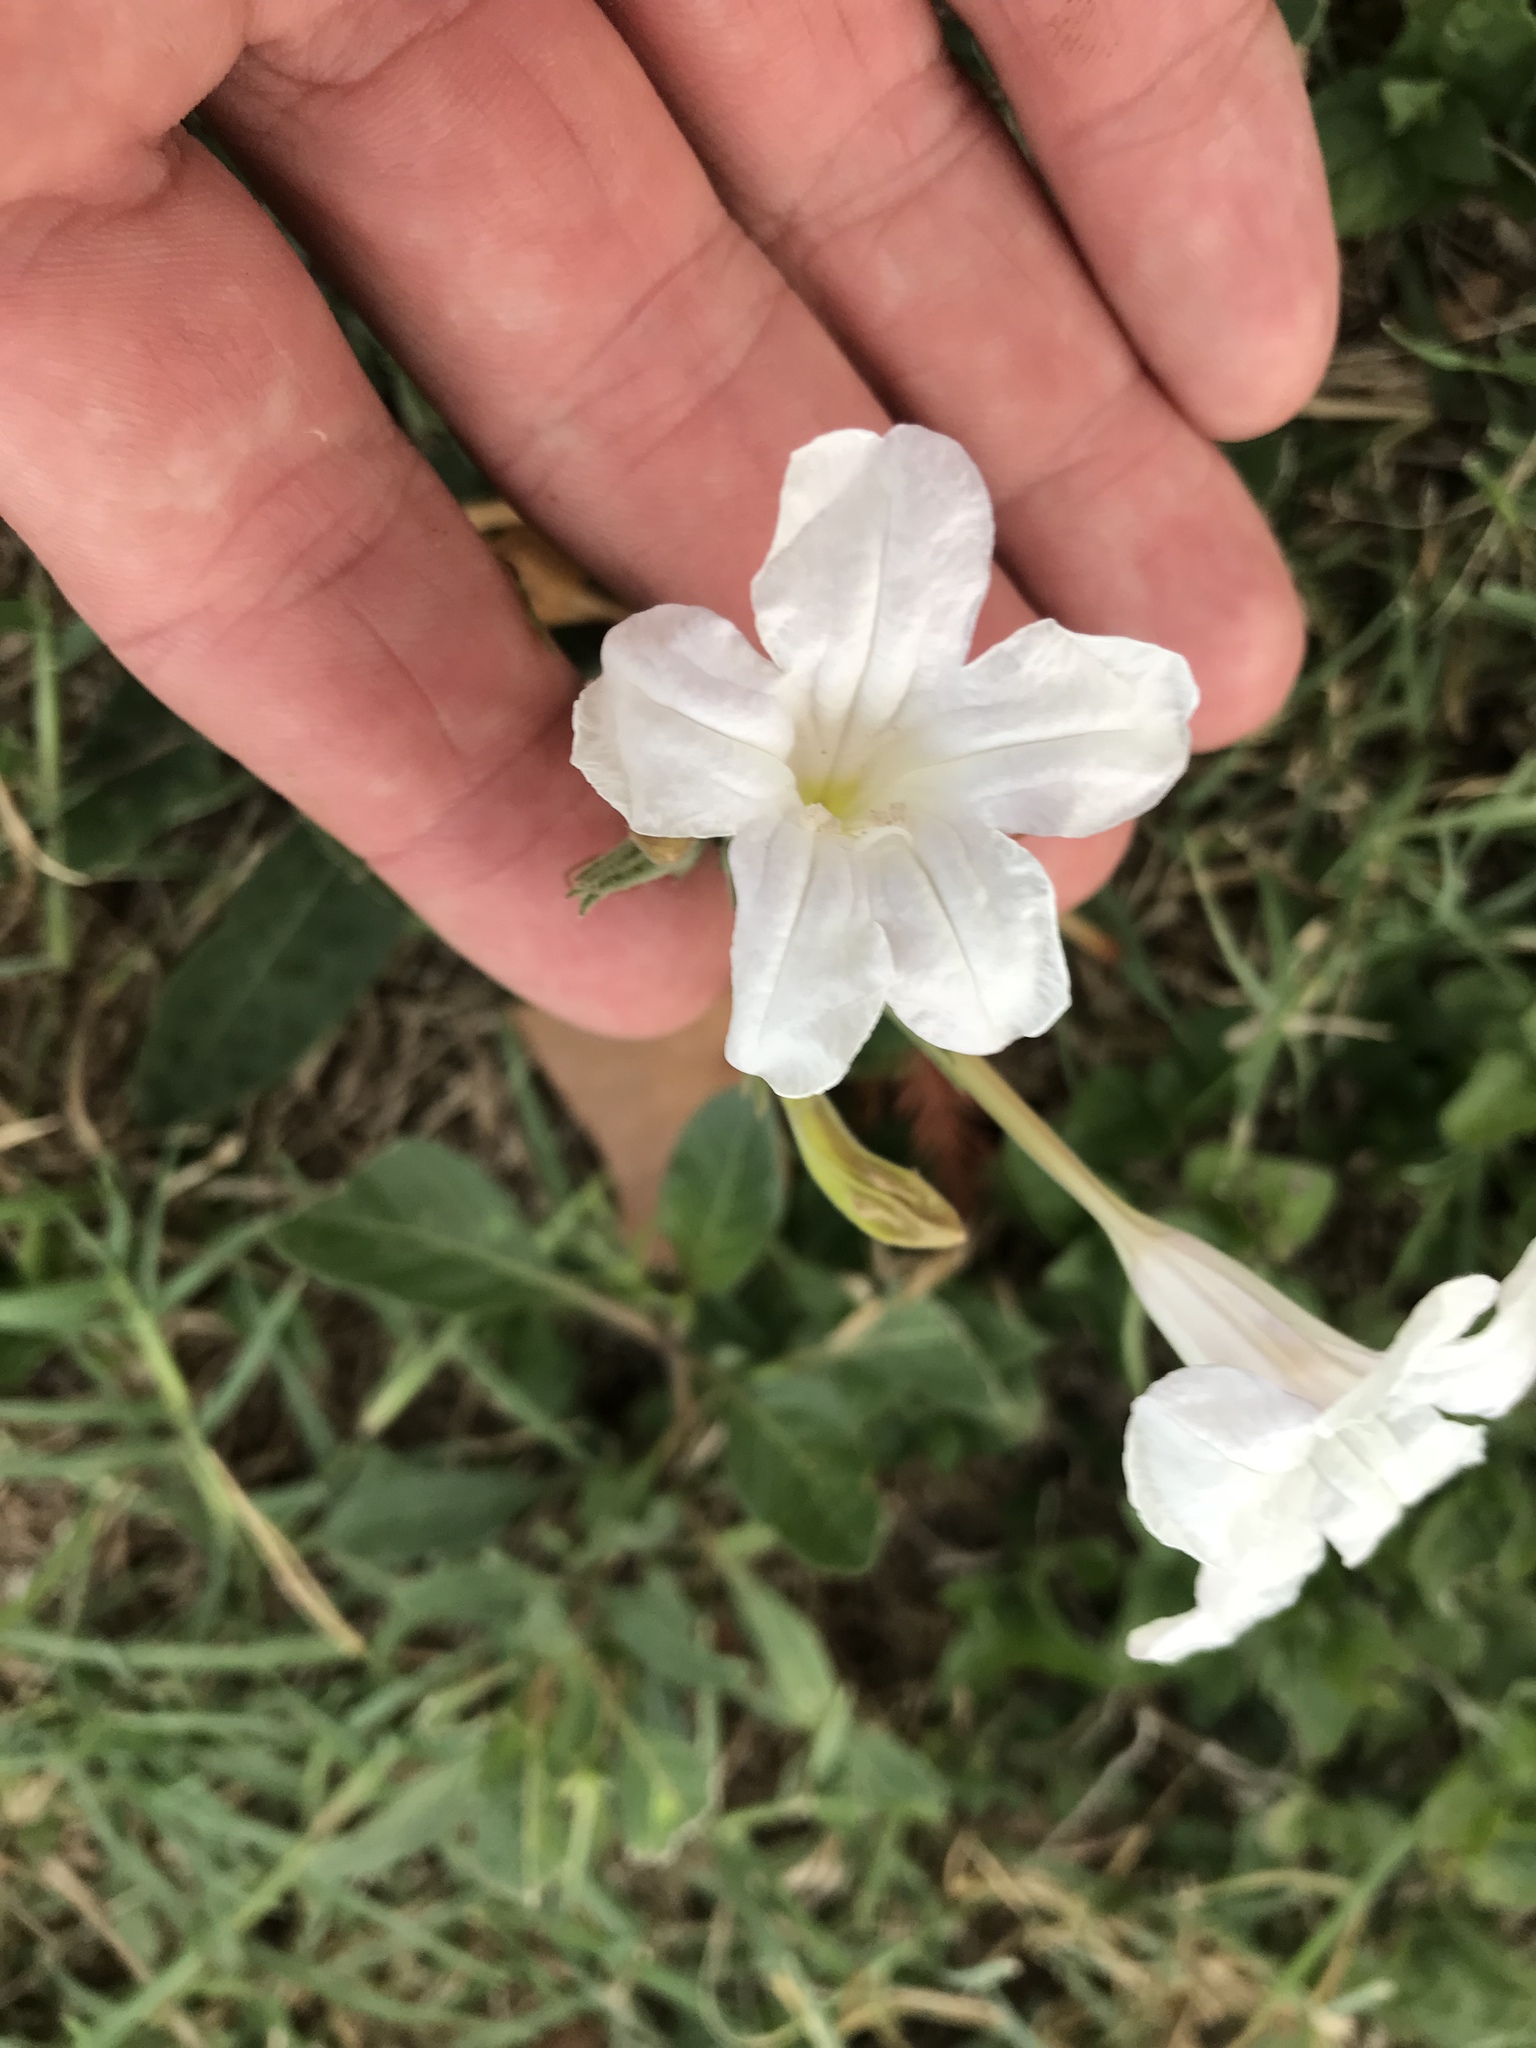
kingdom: Plantae
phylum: Tracheophyta
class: Magnoliopsida
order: Lamiales
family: Acanthaceae
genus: Ruellia
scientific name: Ruellia metziae
